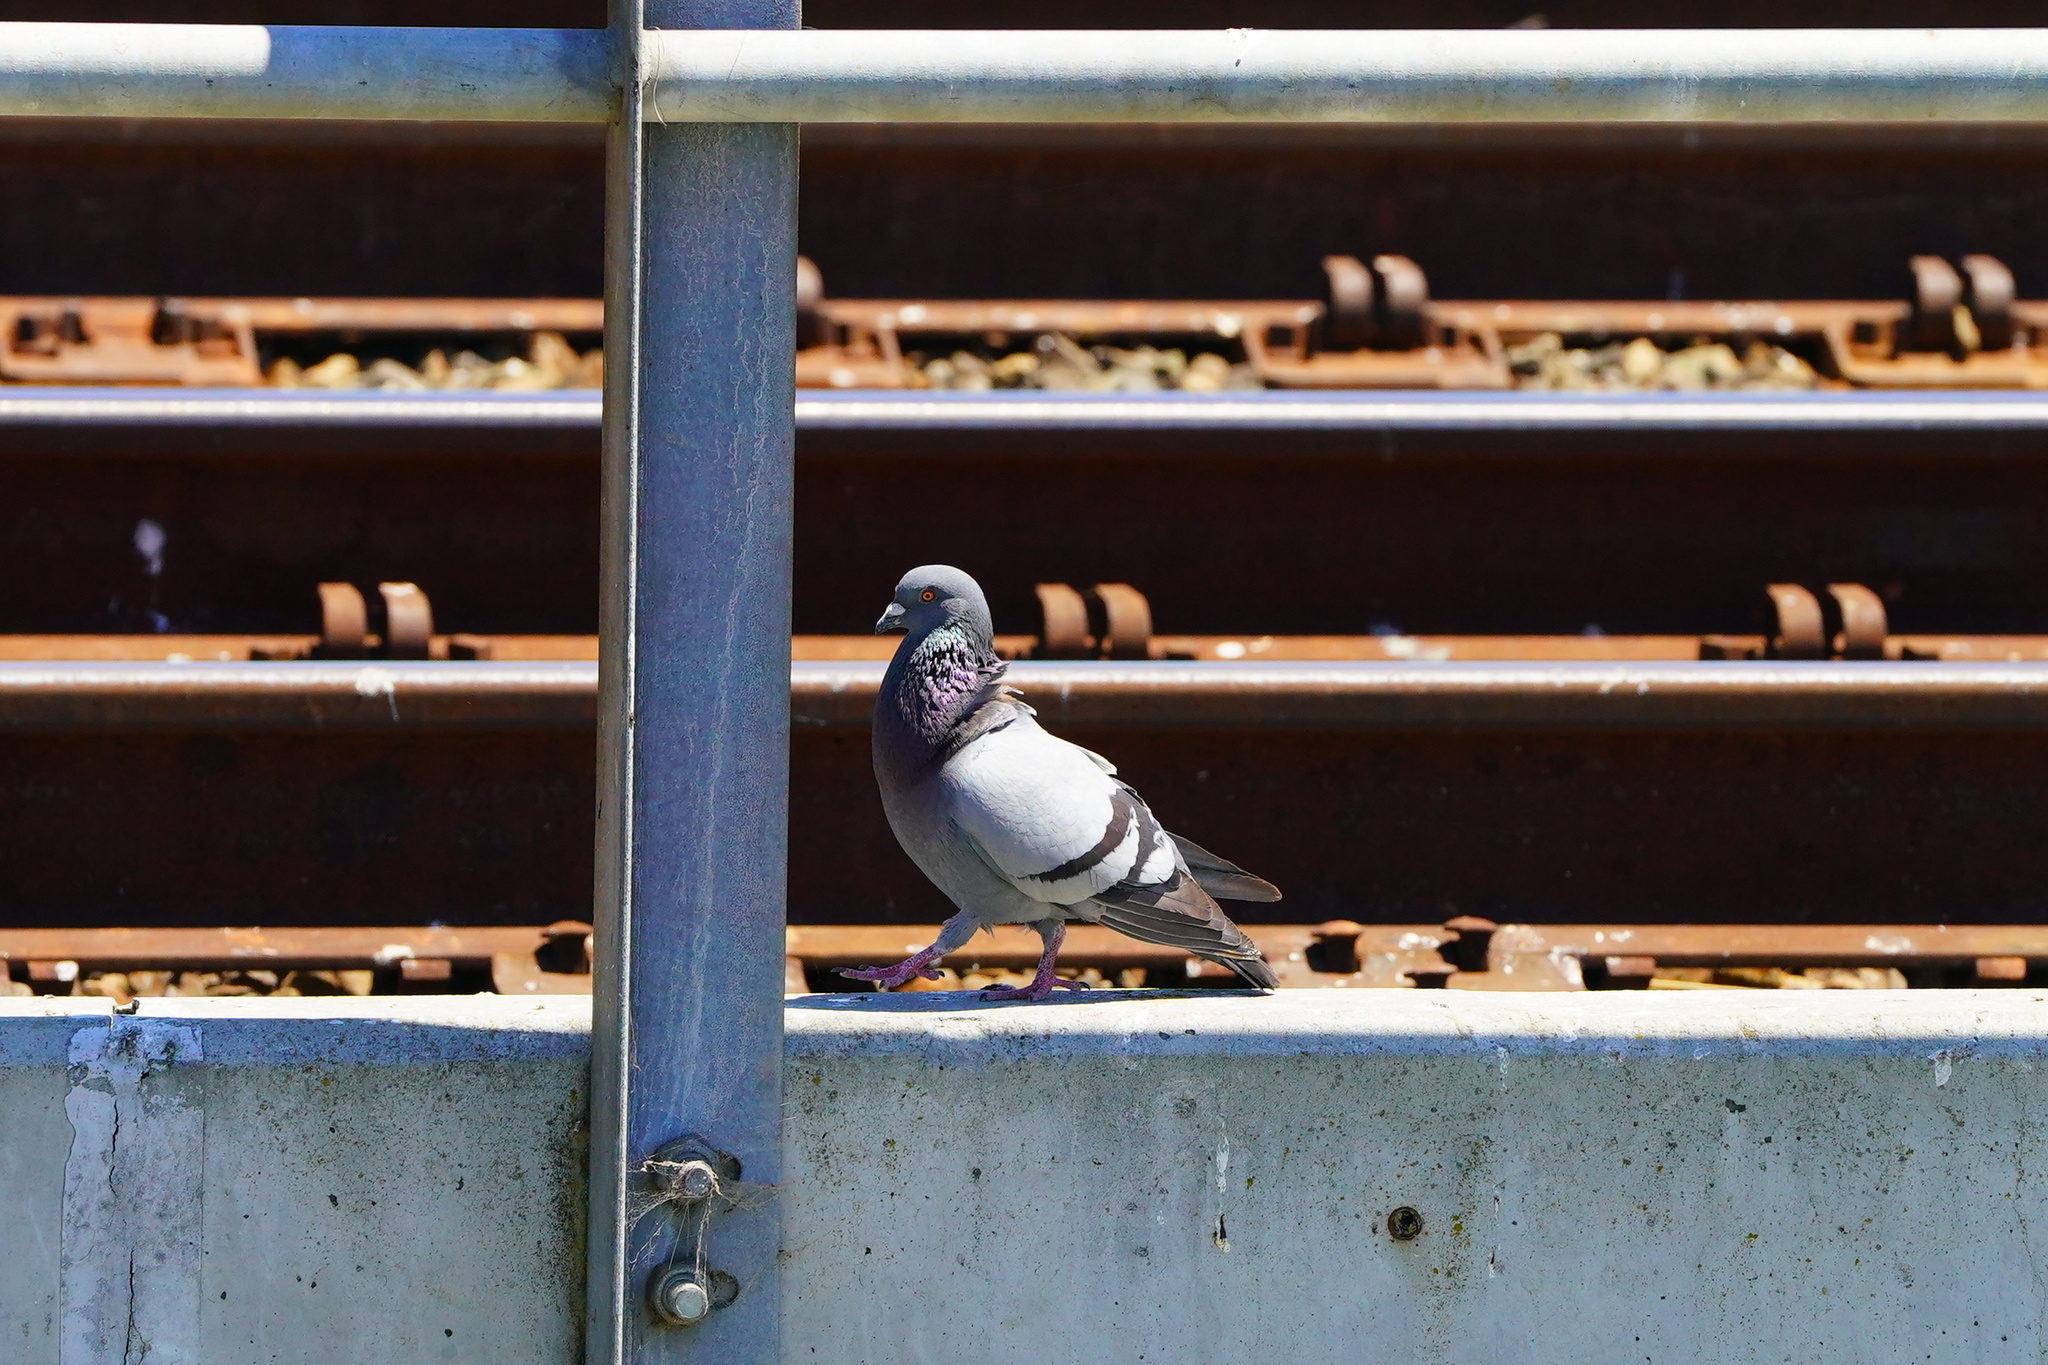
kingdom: Animalia
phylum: Chordata
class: Aves
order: Columbiformes
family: Columbidae
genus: Columba
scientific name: Columba livia
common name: Rock pigeon
